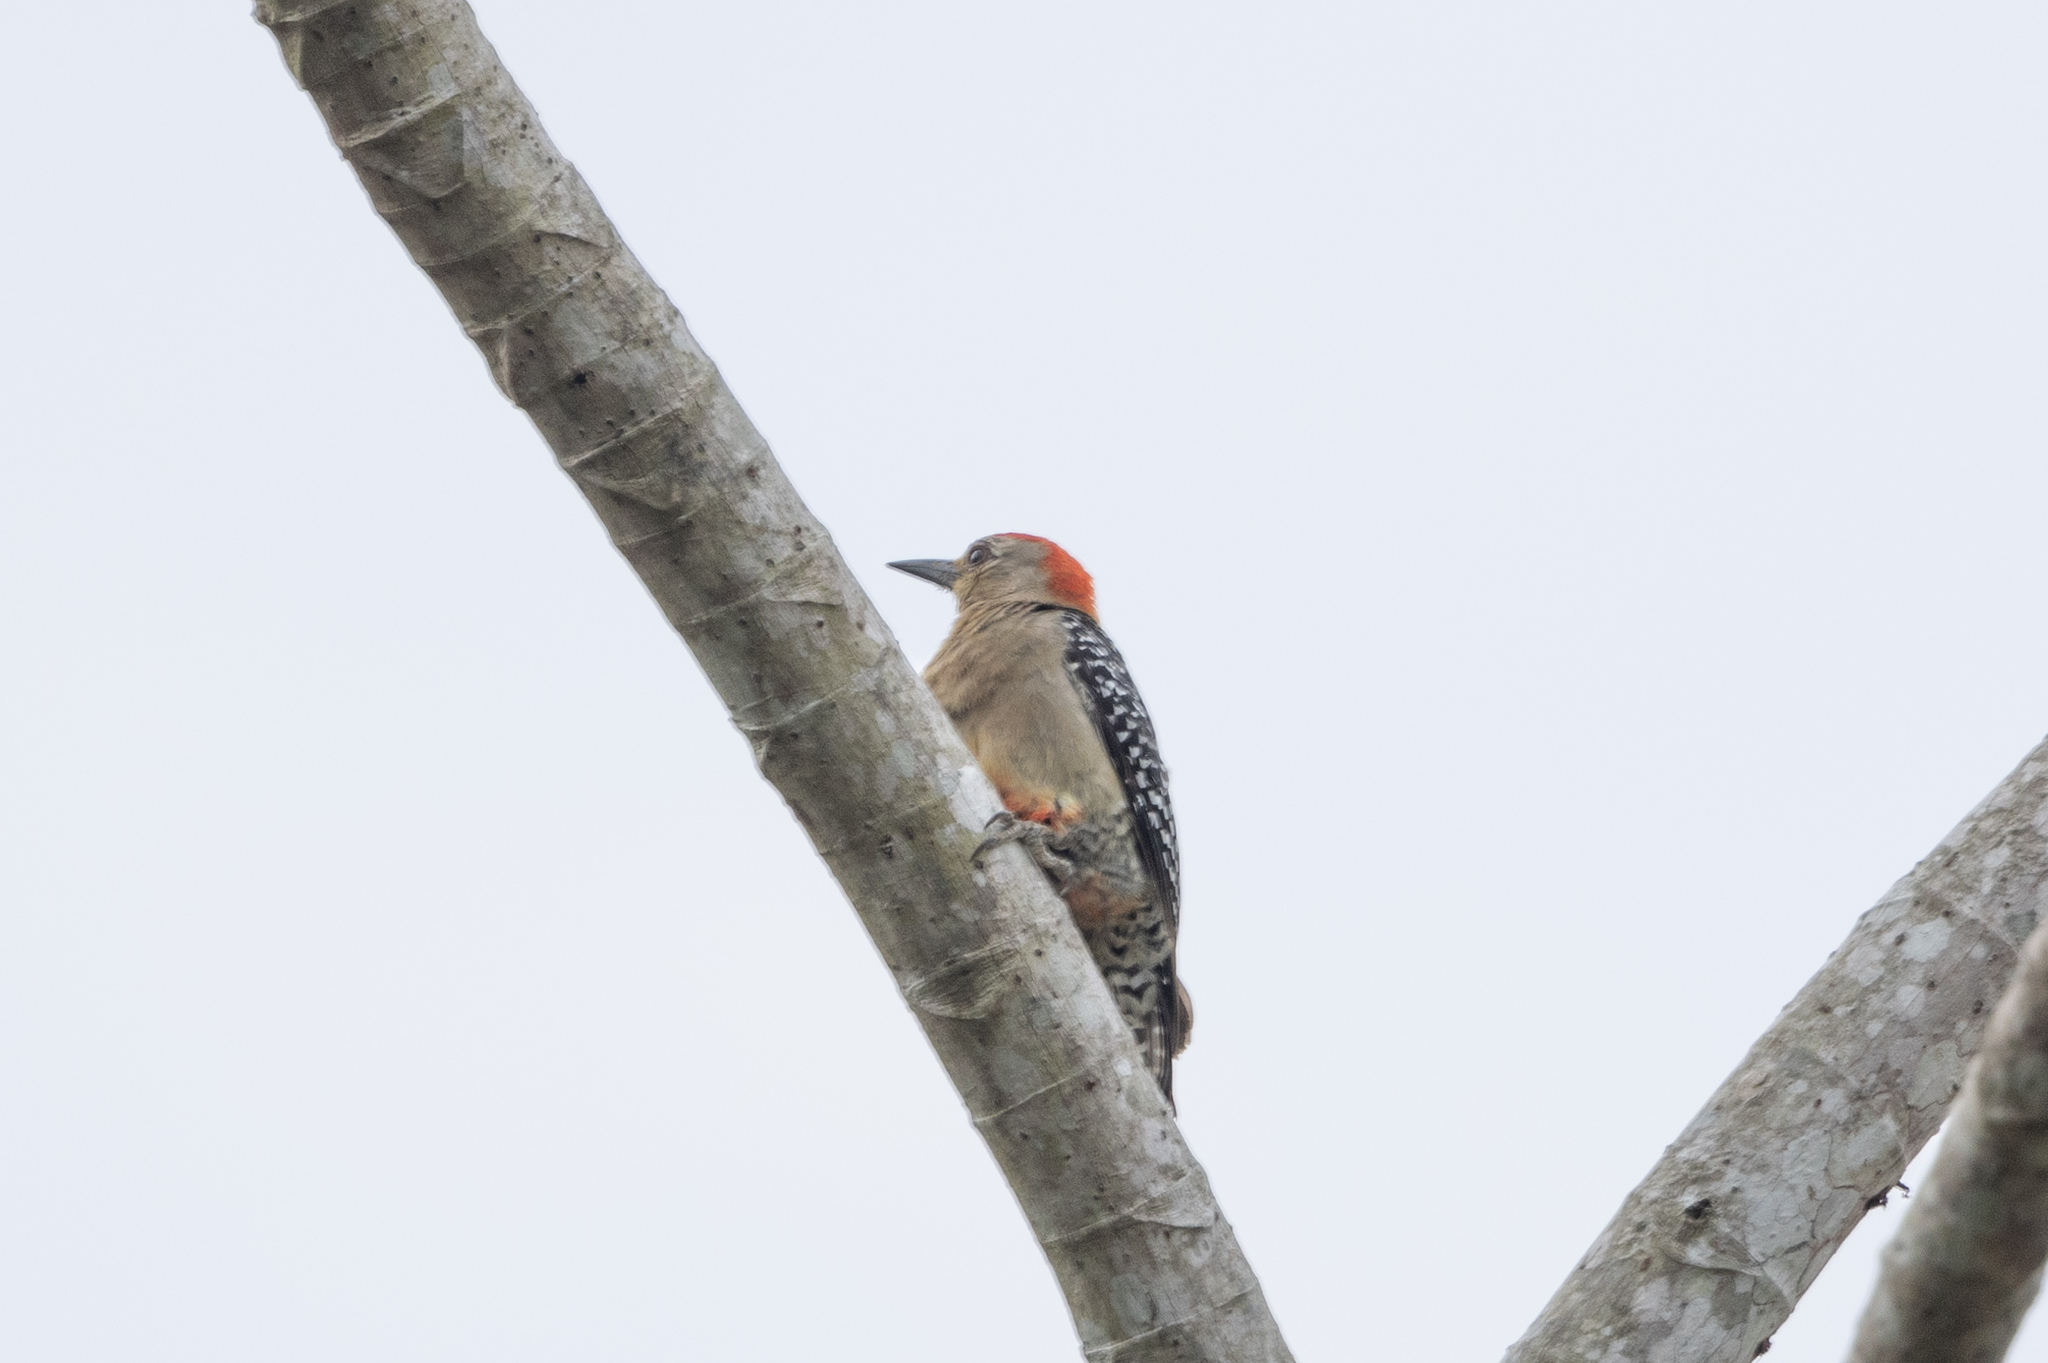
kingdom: Animalia
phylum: Chordata
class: Aves
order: Piciformes
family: Picidae
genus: Melanerpes
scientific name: Melanerpes rubricapillus
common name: Red-crowned woodpecker
